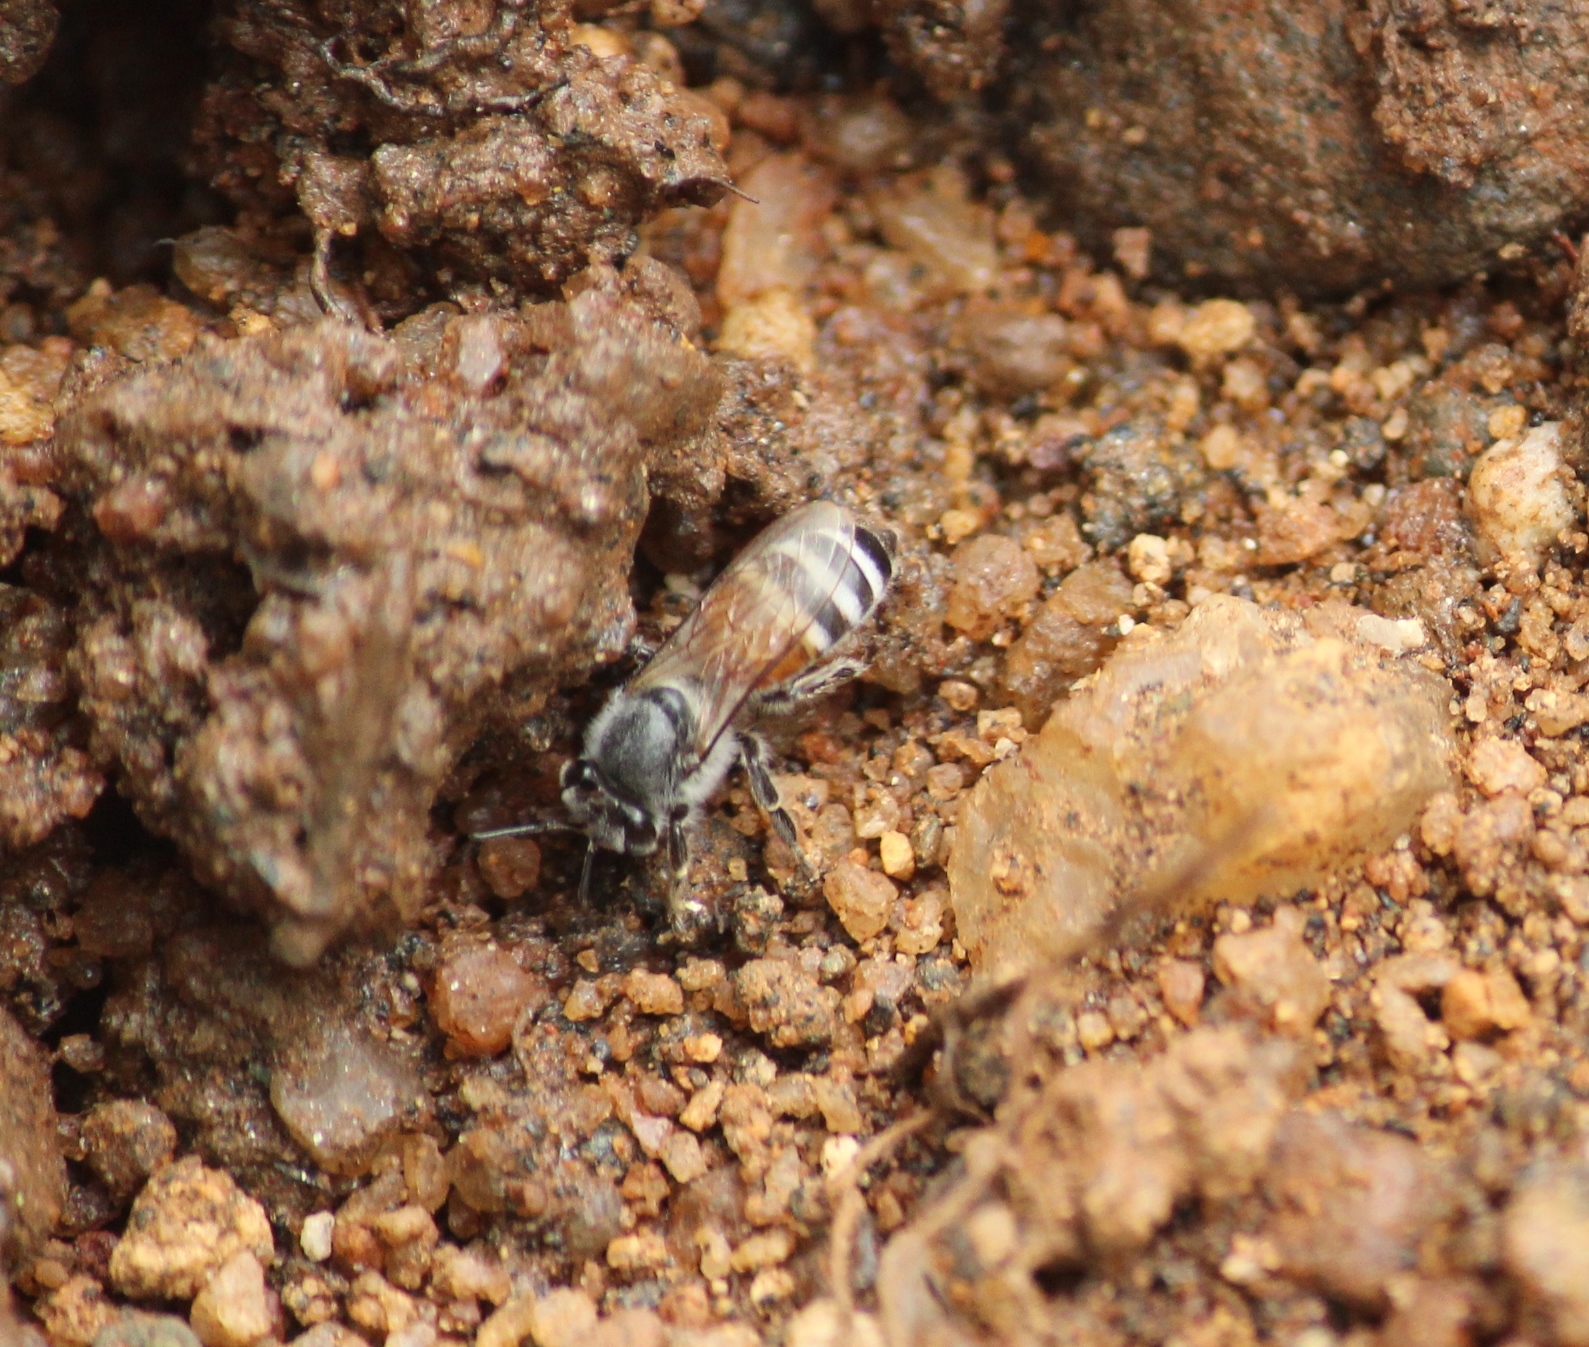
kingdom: Animalia
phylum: Arthropoda
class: Insecta
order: Hymenoptera
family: Apidae
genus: Apis
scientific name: Apis florea
